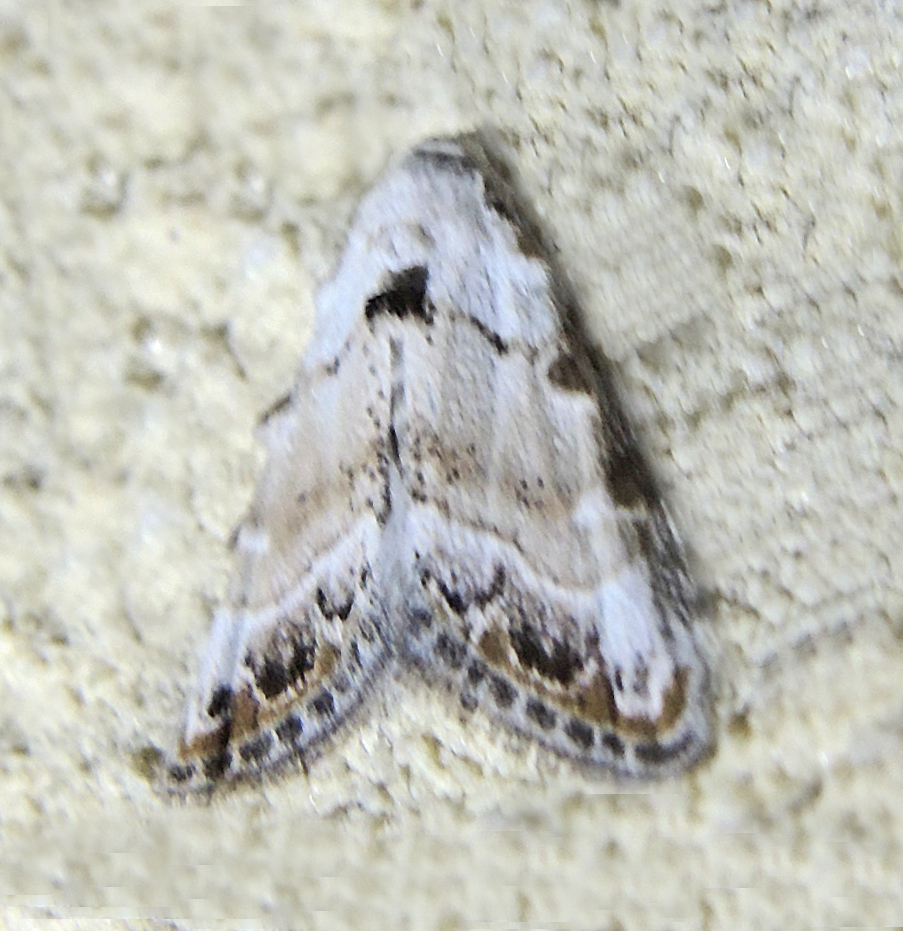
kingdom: Animalia
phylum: Arthropoda
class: Insecta
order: Lepidoptera
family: Nolidae
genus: Nola
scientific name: Nola chlamitulalis
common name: Jersey black arches
